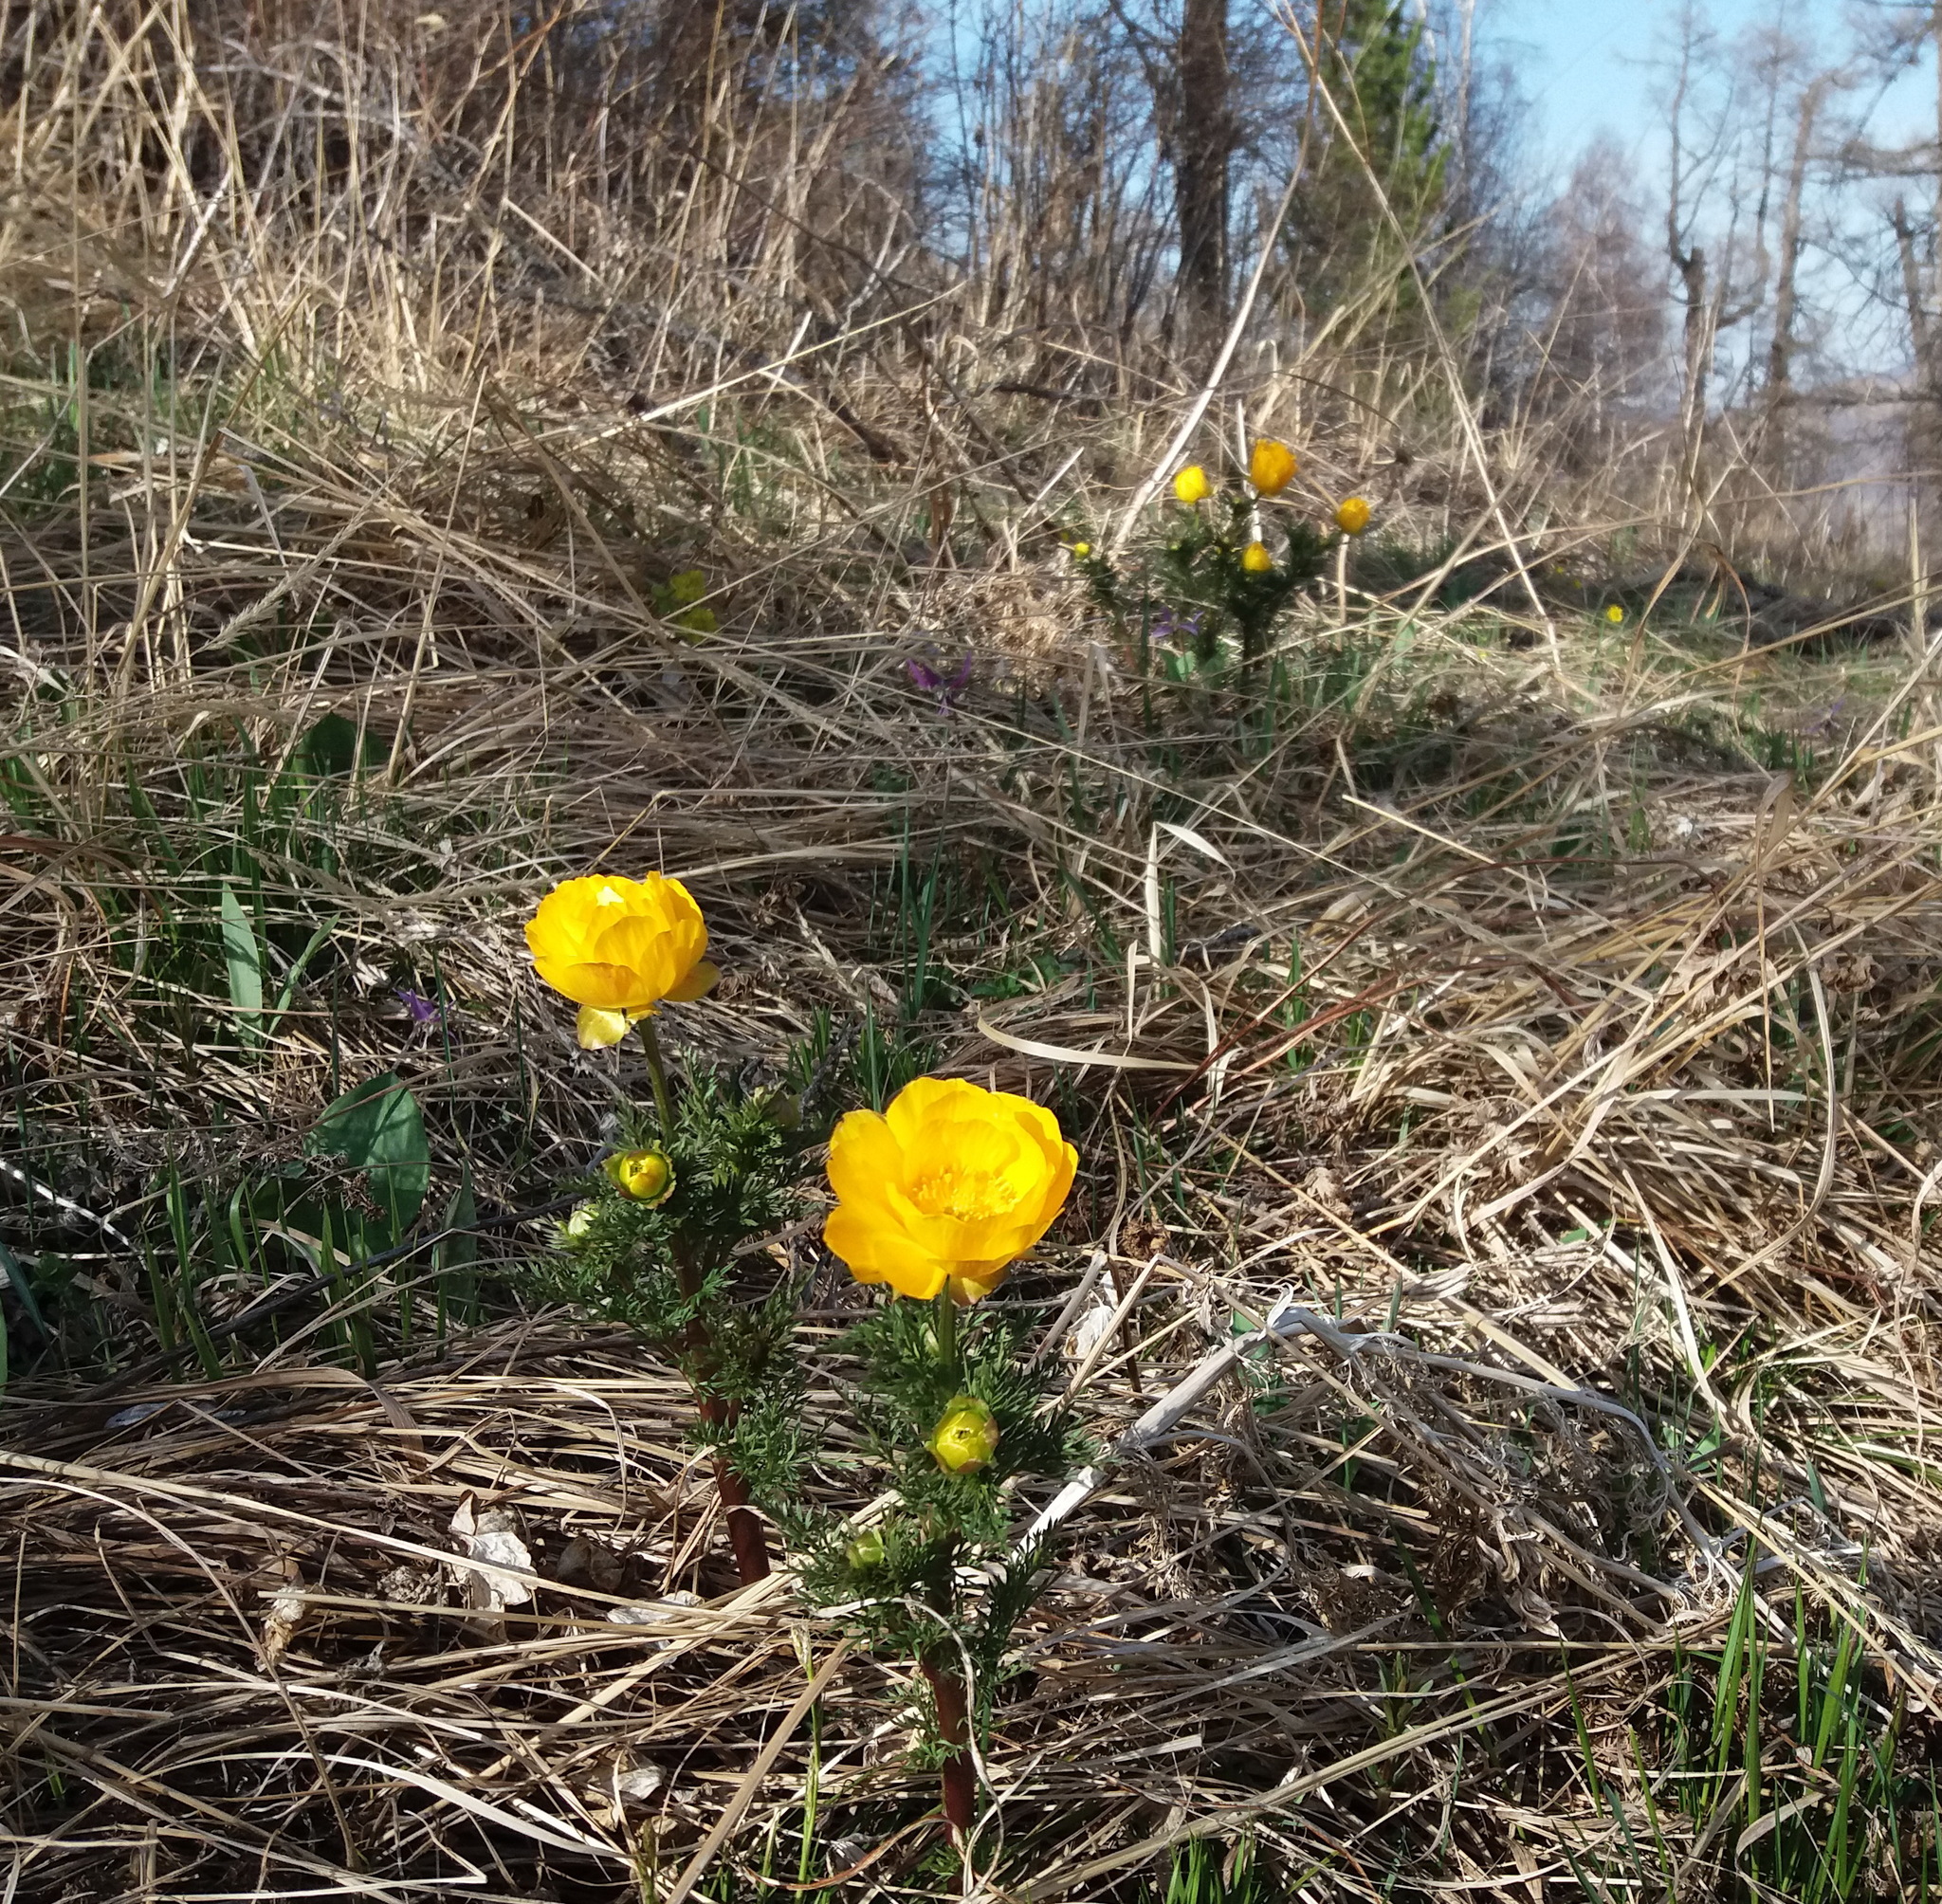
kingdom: Plantae
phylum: Tracheophyta
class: Magnoliopsida
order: Ranunculales
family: Ranunculaceae
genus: Adonis
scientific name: Adonis
